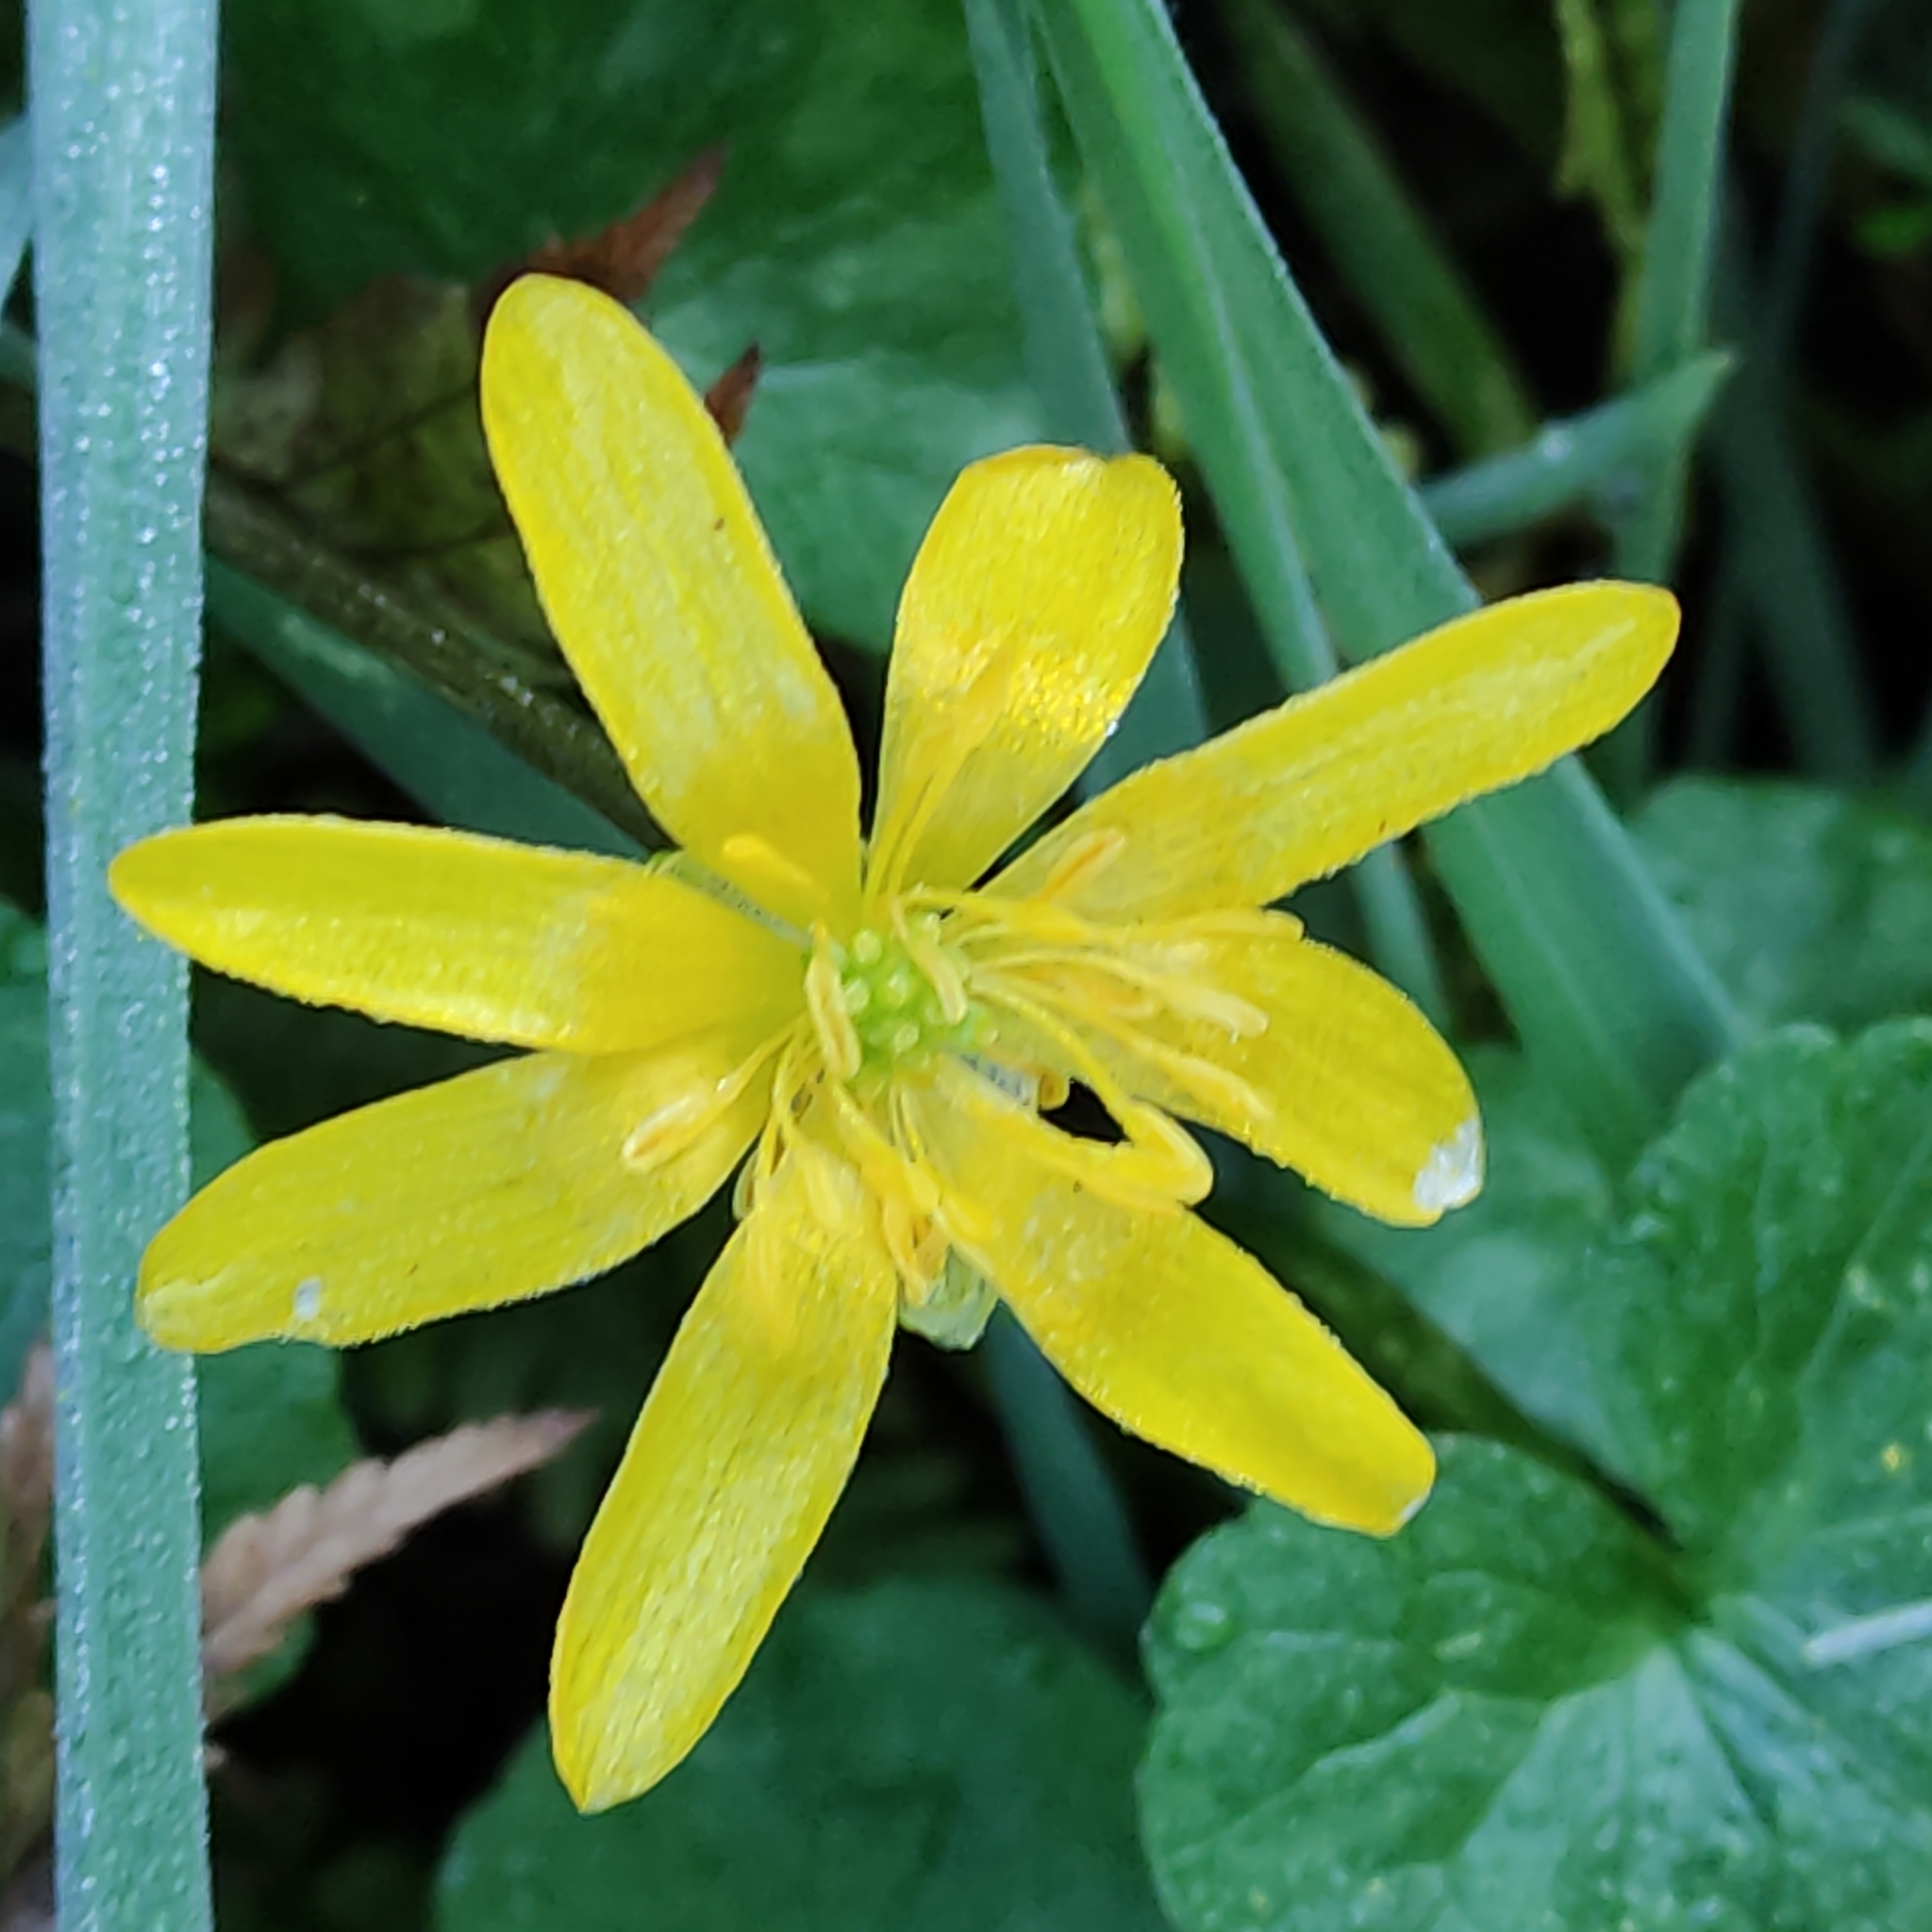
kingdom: Plantae
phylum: Tracheophyta
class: Magnoliopsida
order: Ranunculales
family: Ranunculaceae
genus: Ficaria
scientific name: Ficaria verna
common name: Lesser celandine
